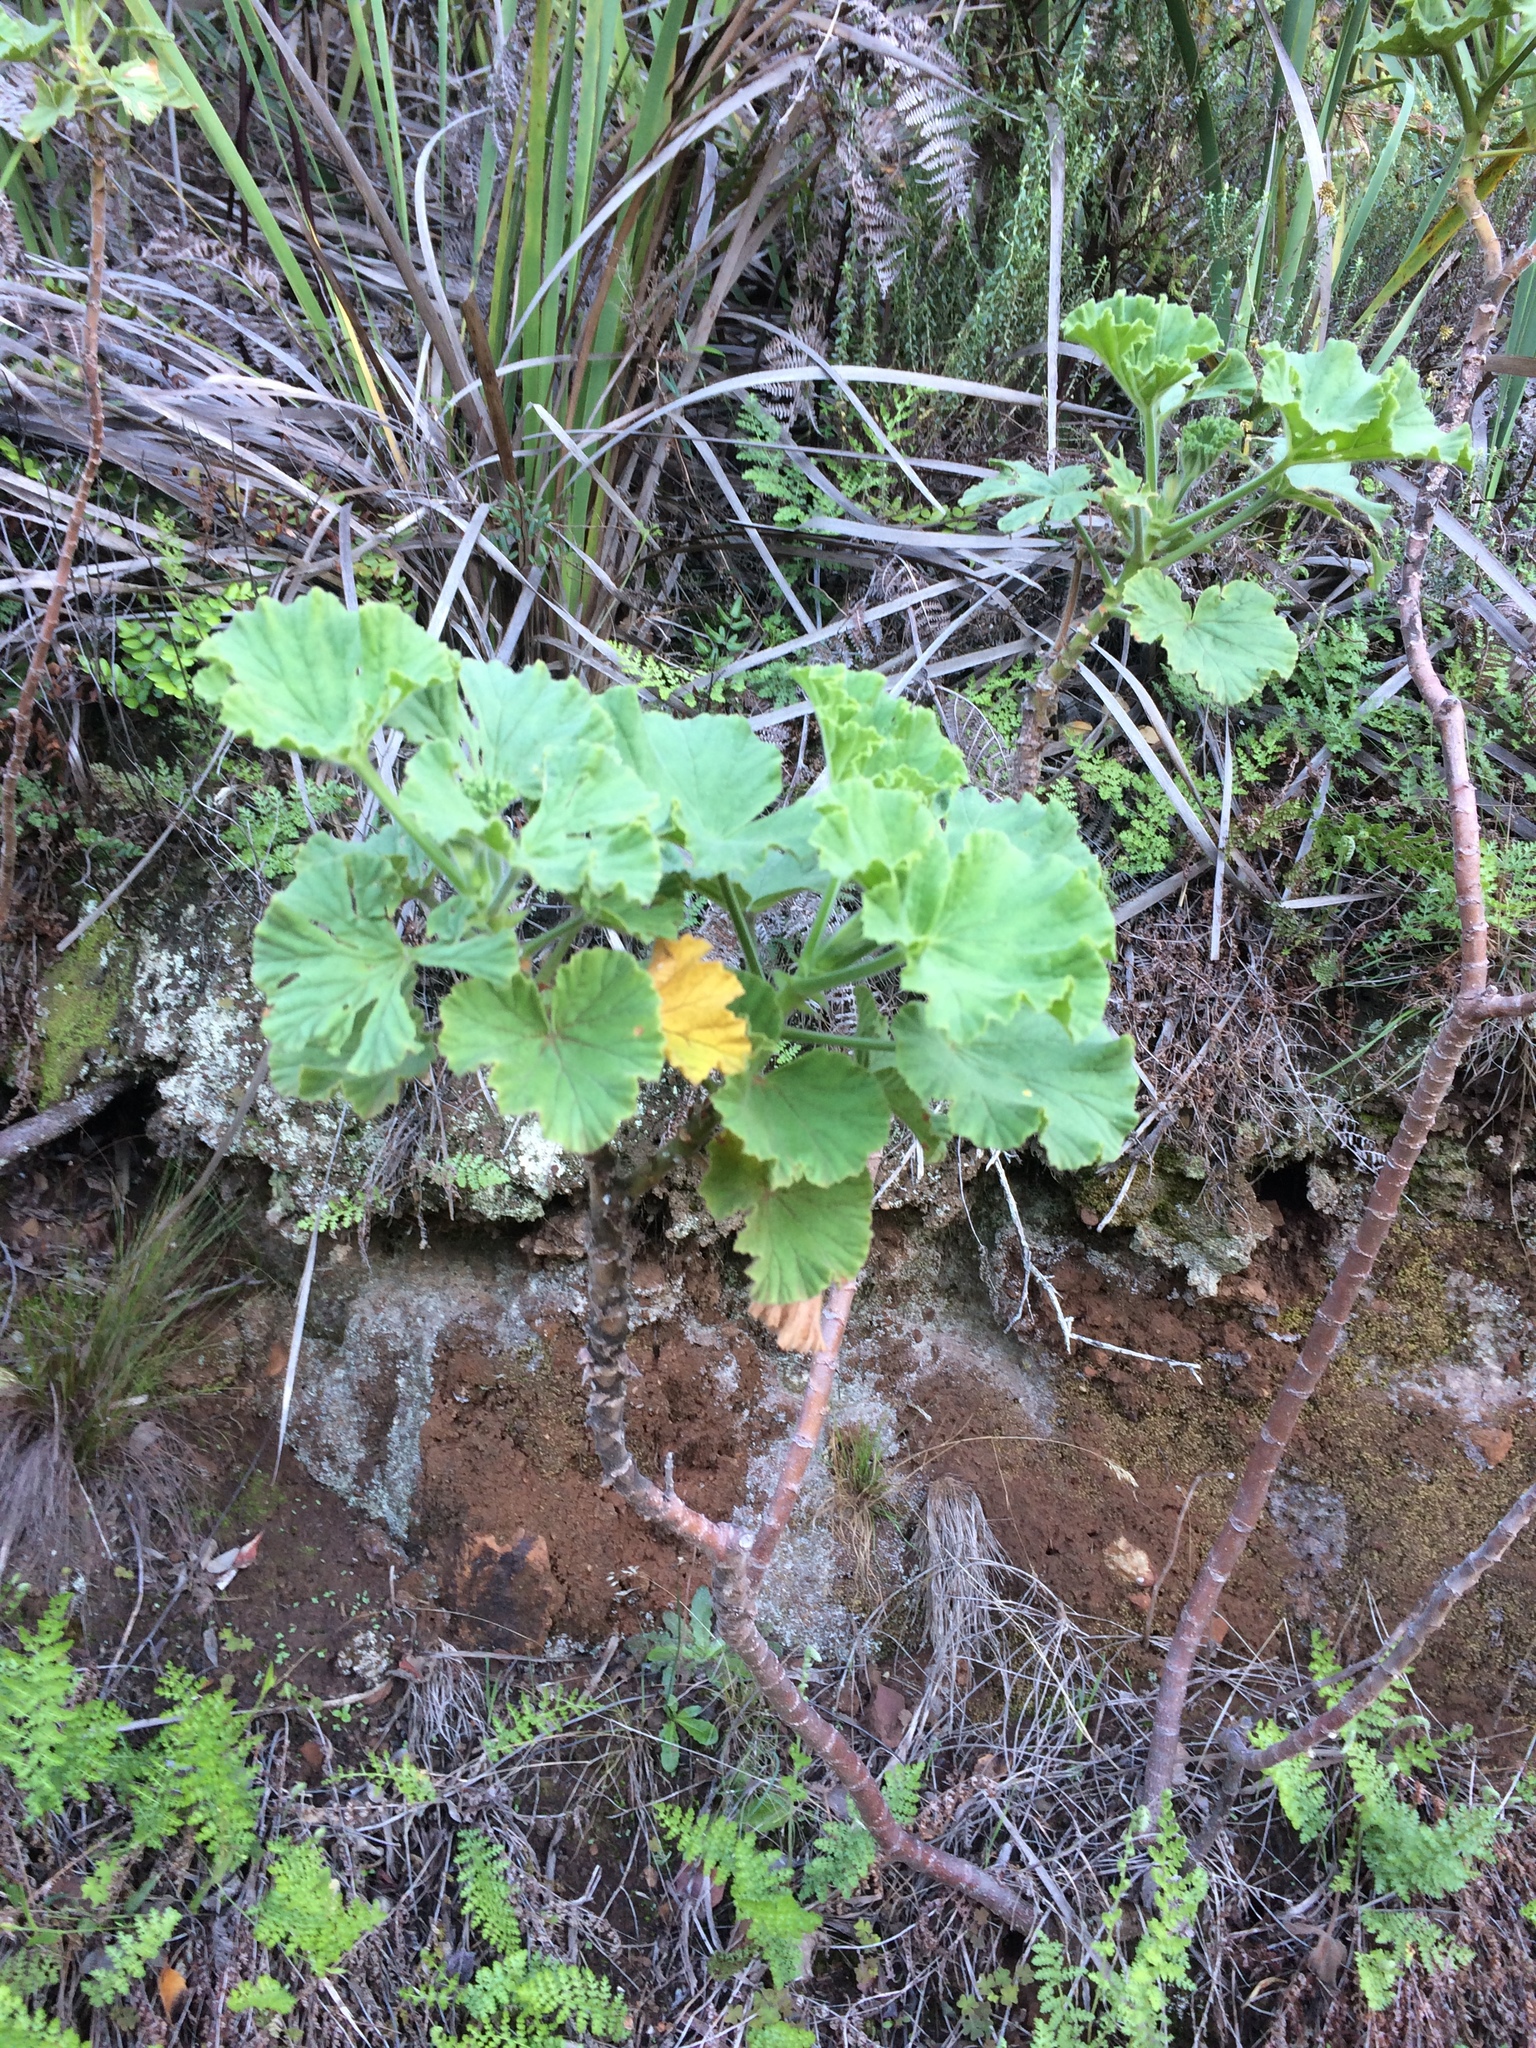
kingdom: Plantae
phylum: Tracheophyta
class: Magnoliopsida
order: Geraniales
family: Geraniaceae
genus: Pelargonium
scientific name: Pelargonium cucullatum
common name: Tree pelargonium
